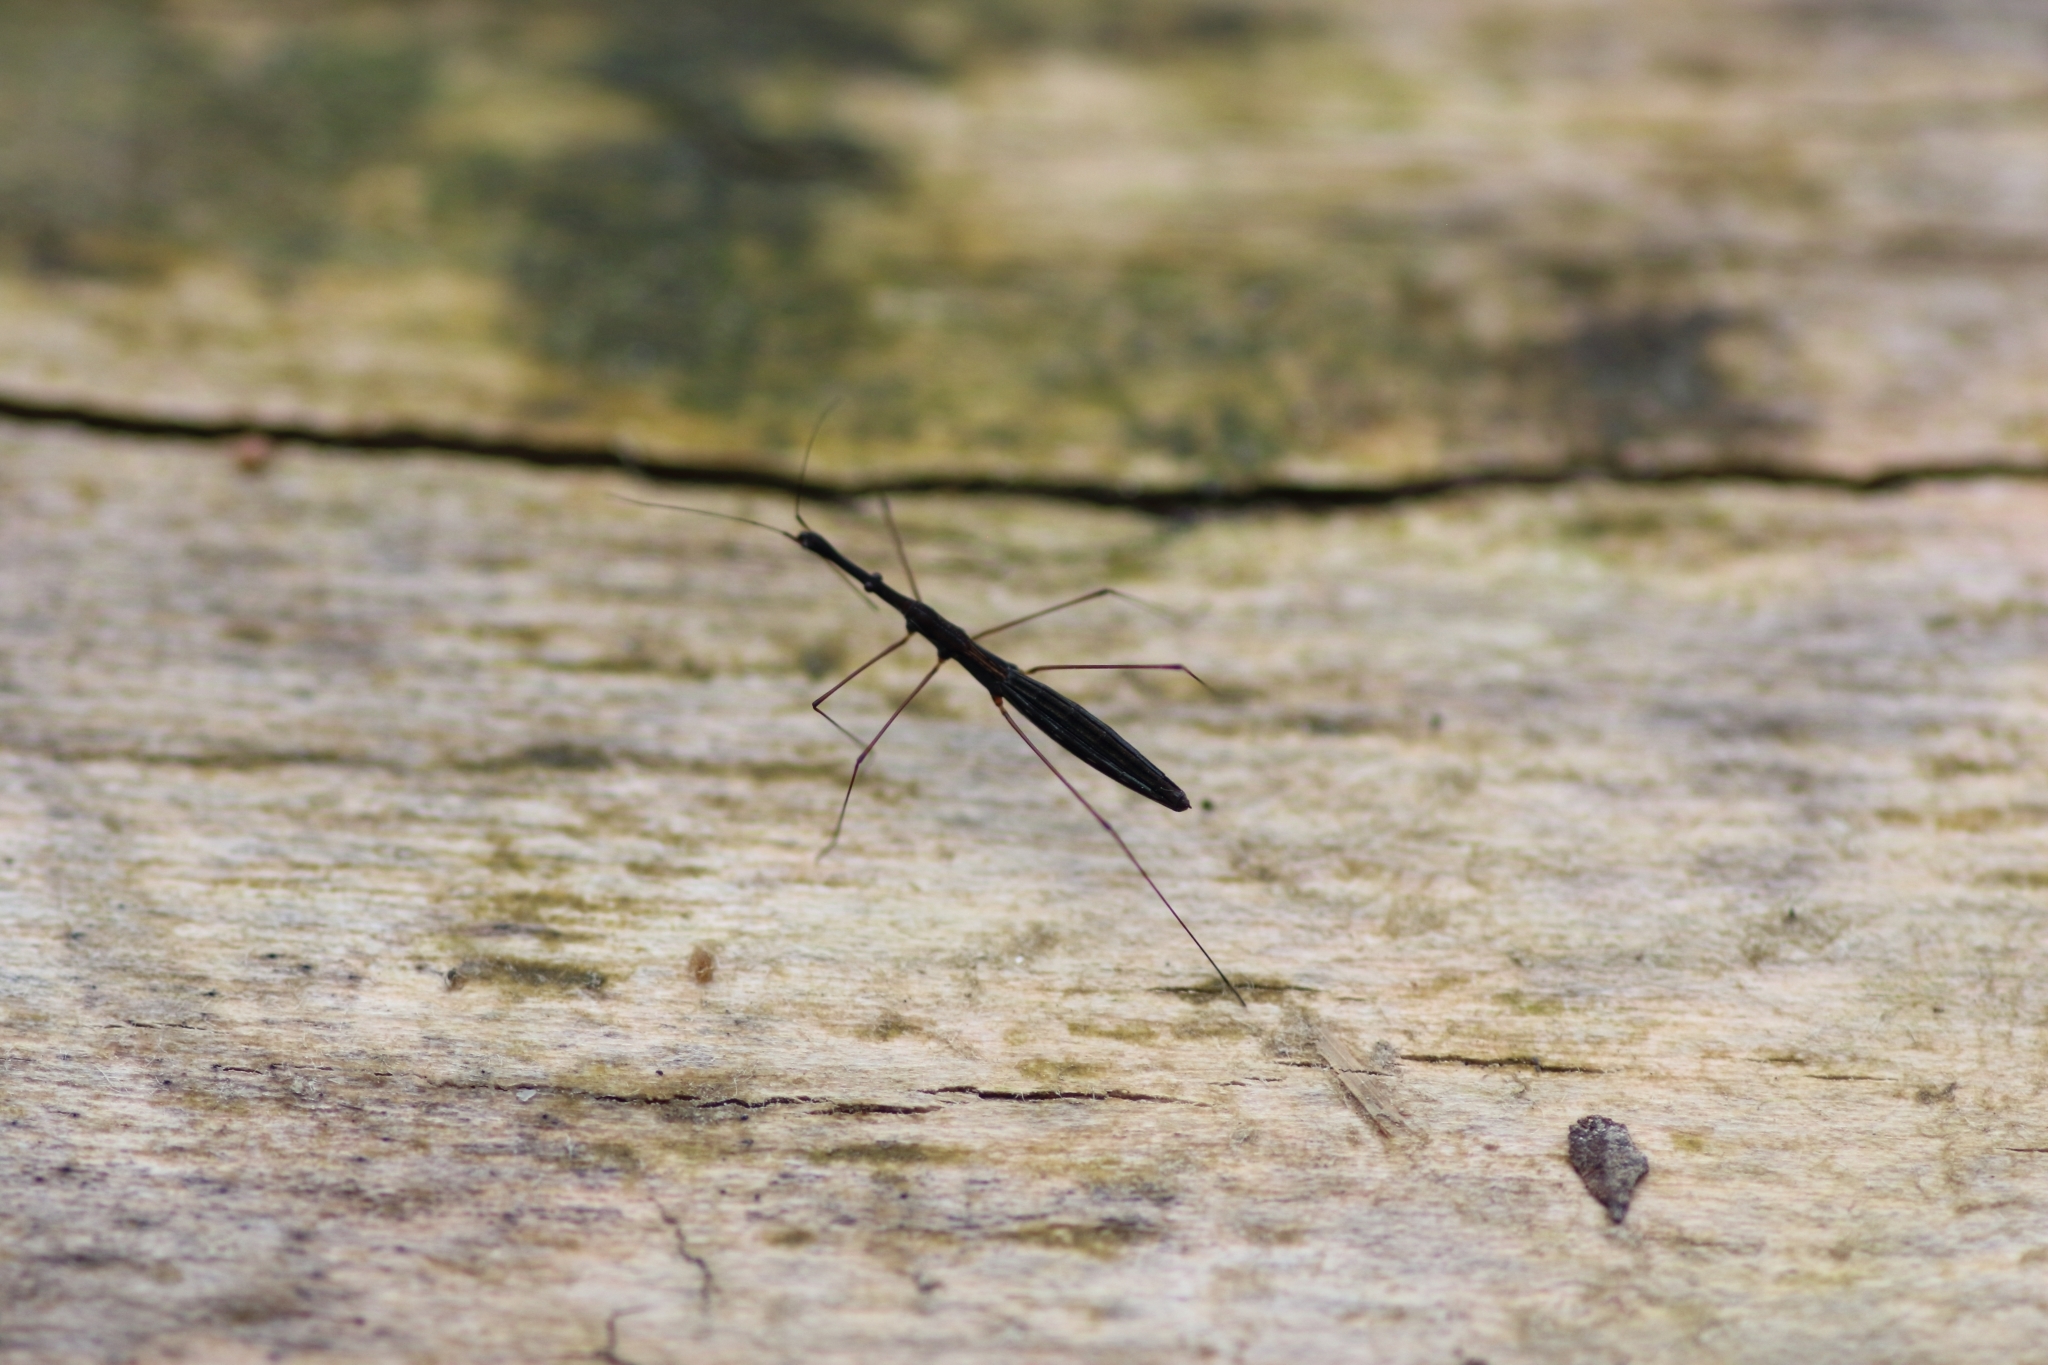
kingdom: Animalia
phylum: Arthropoda
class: Insecta
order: Hemiptera
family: Hydrometridae
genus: Hydrometra
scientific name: Hydrometra stagnorum
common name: Water measurer
